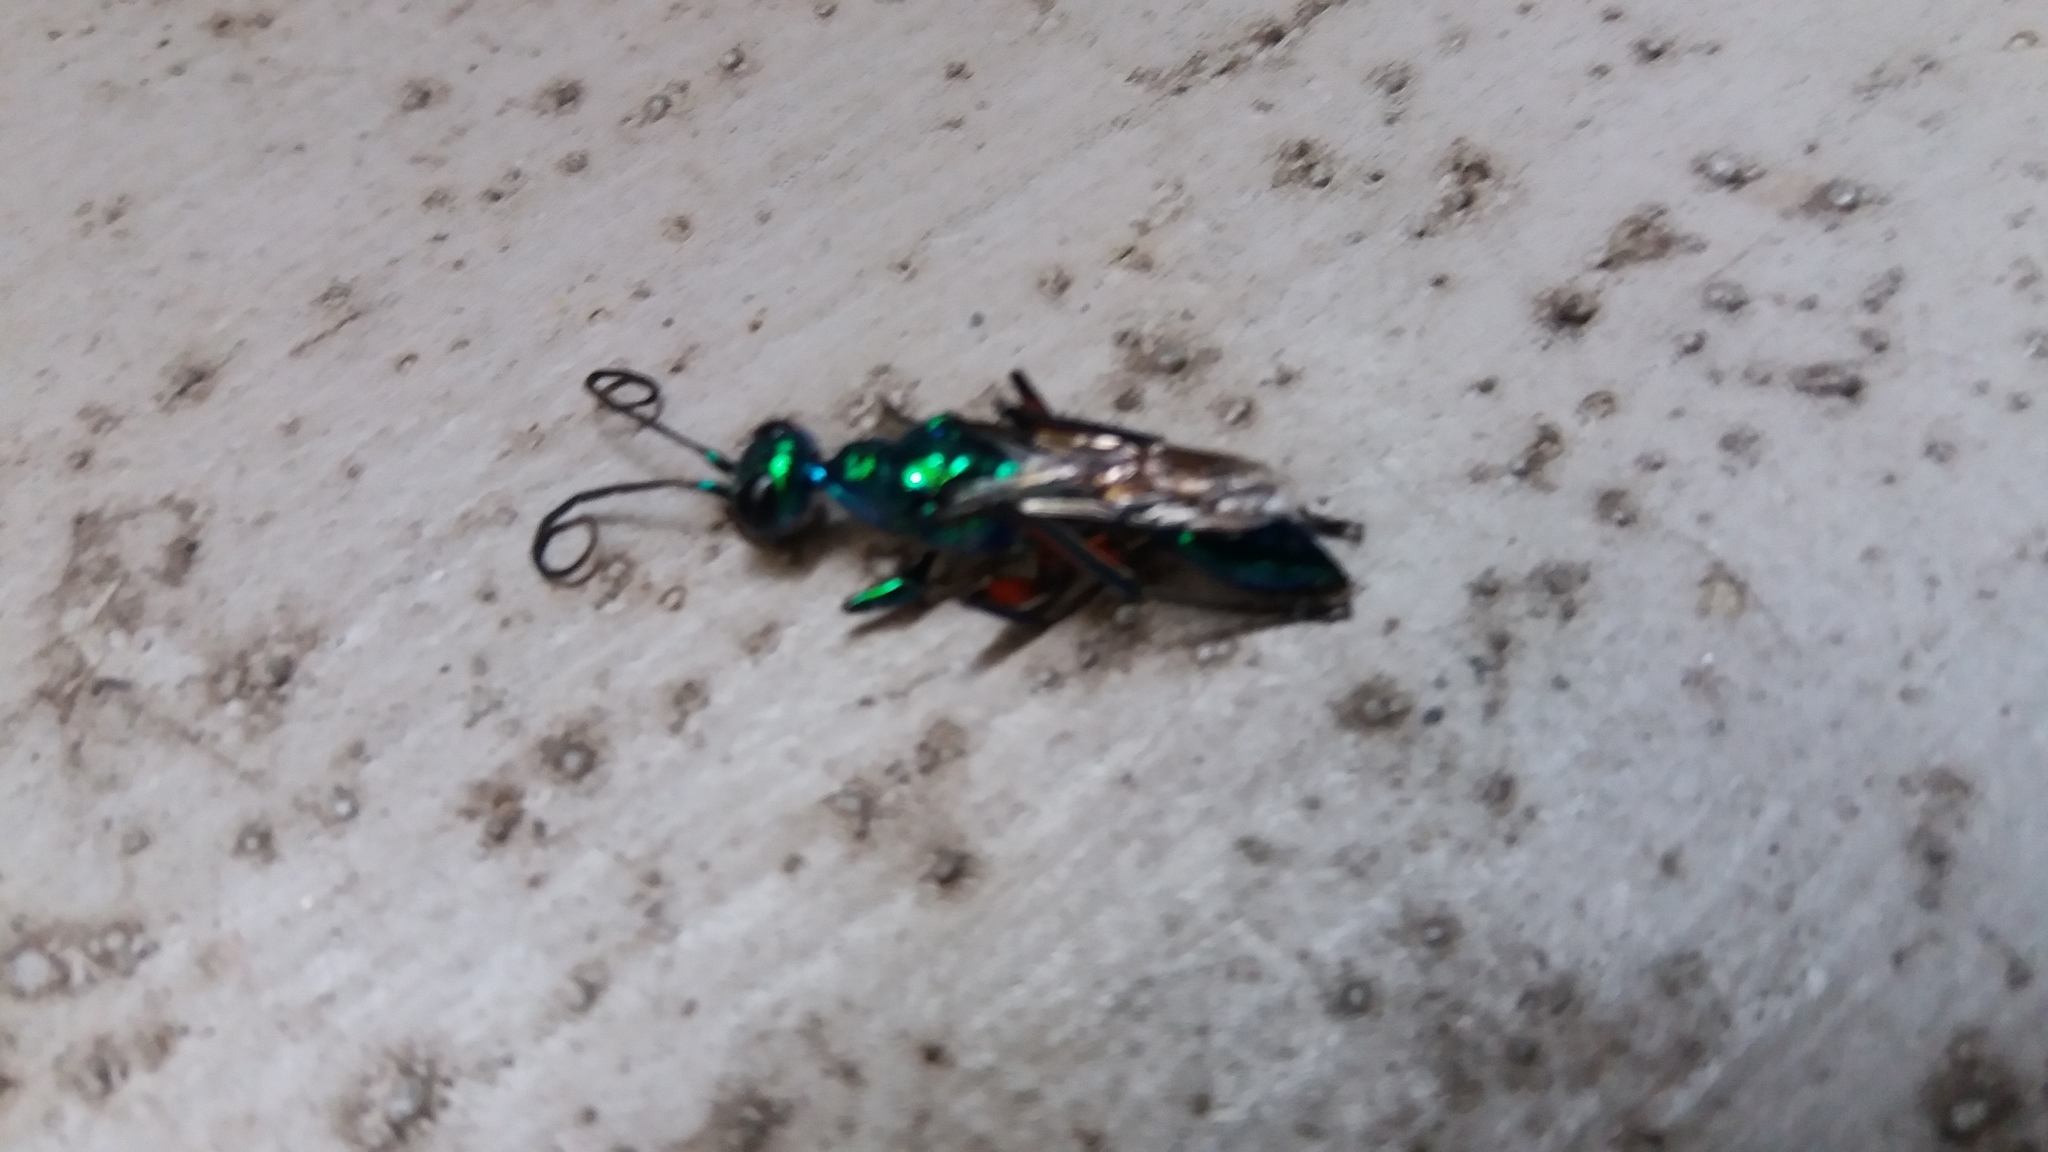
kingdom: Animalia
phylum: Arthropoda
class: Insecta
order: Hymenoptera
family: Ampulicidae
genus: Ampulex
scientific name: Ampulex compressa
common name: Emerald cockroach wasp
